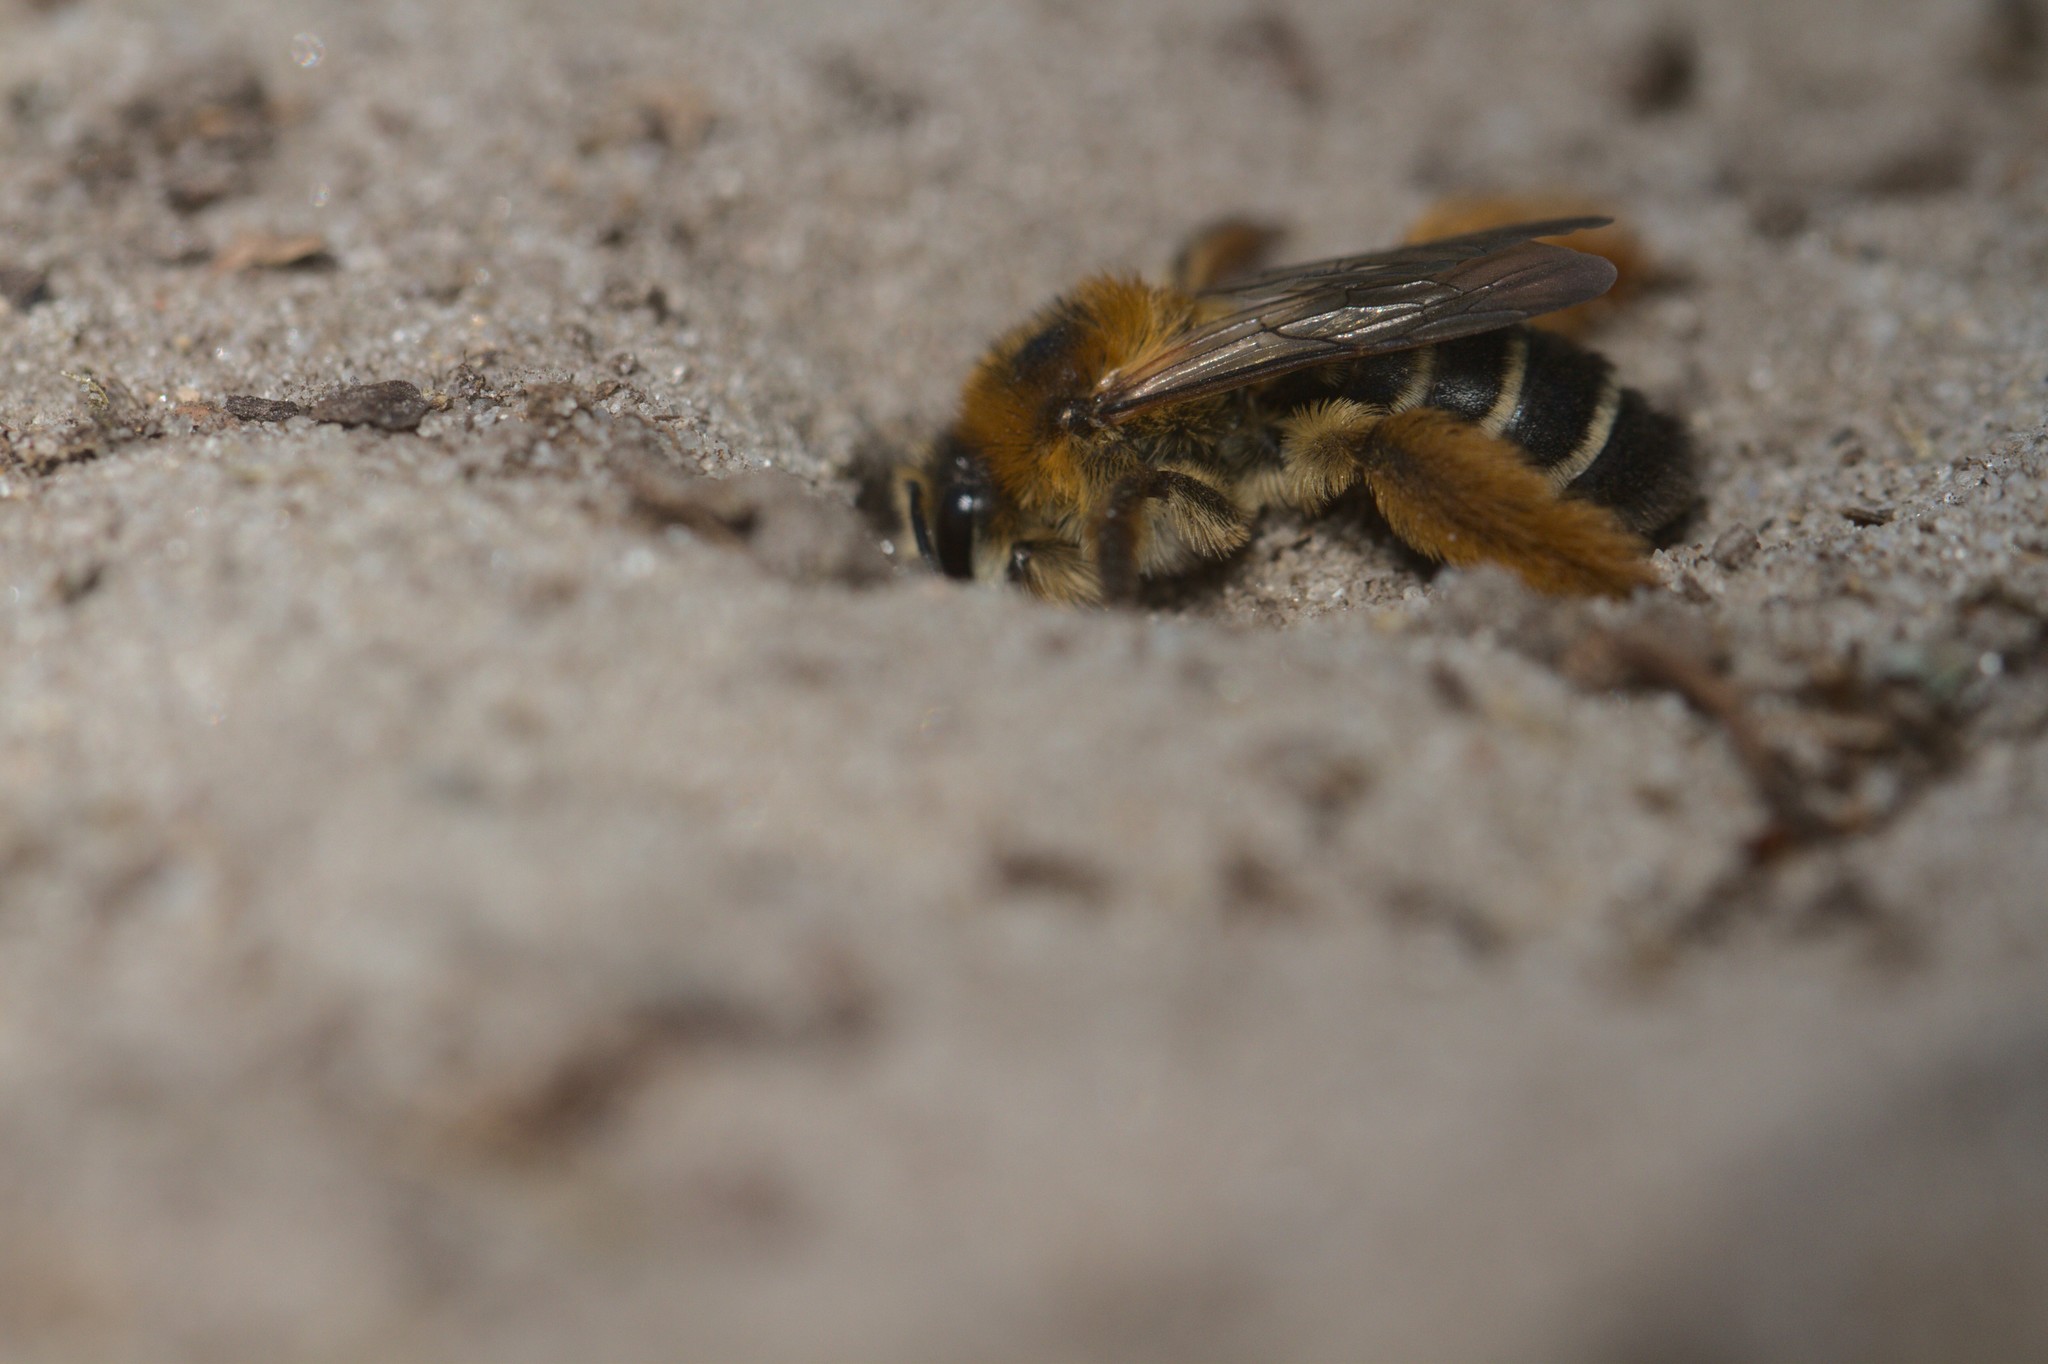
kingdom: Animalia
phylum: Arthropoda
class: Insecta
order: Hymenoptera
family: Melittidae
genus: Dasypoda
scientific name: Dasypoda hirtipes
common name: Pantaloon bee
